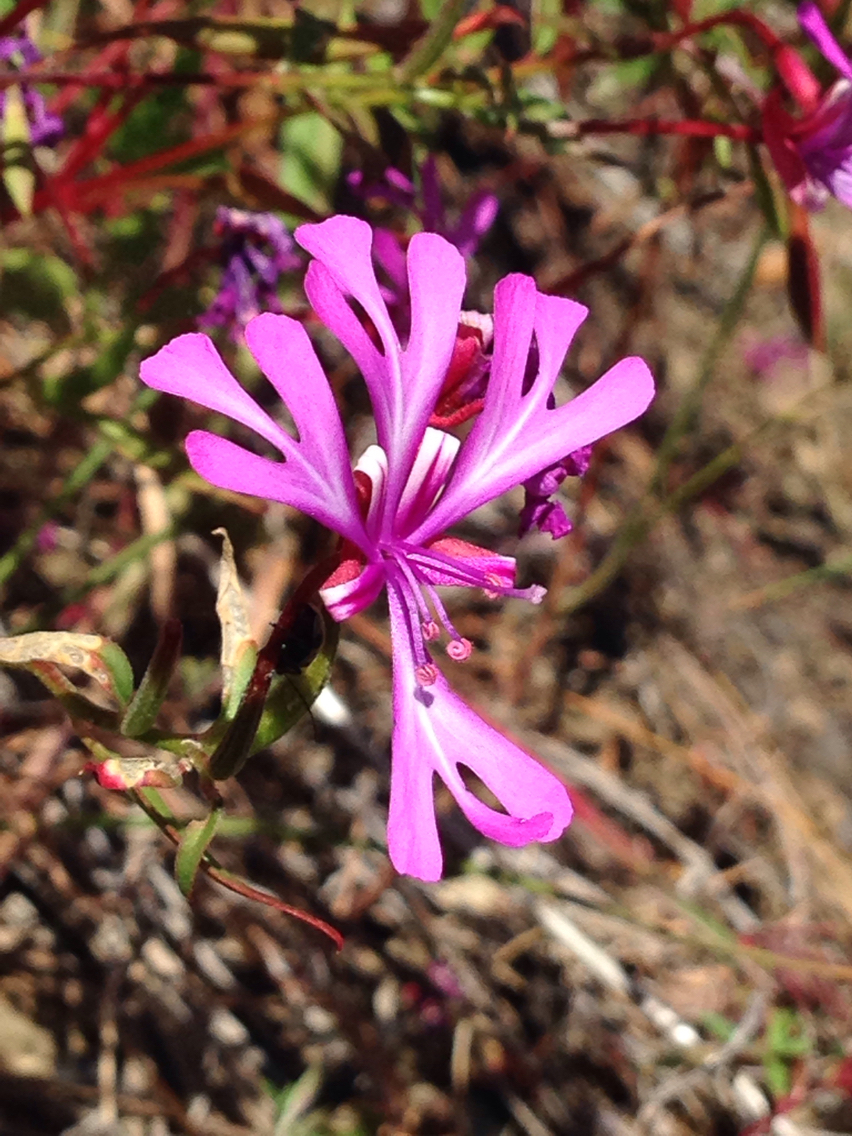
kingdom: Plantae
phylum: Tracheophyta
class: Magnoliopsida
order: Myrtales
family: Onagraceae
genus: Clarkia
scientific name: Clarkia concinna
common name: Red-ribbons
